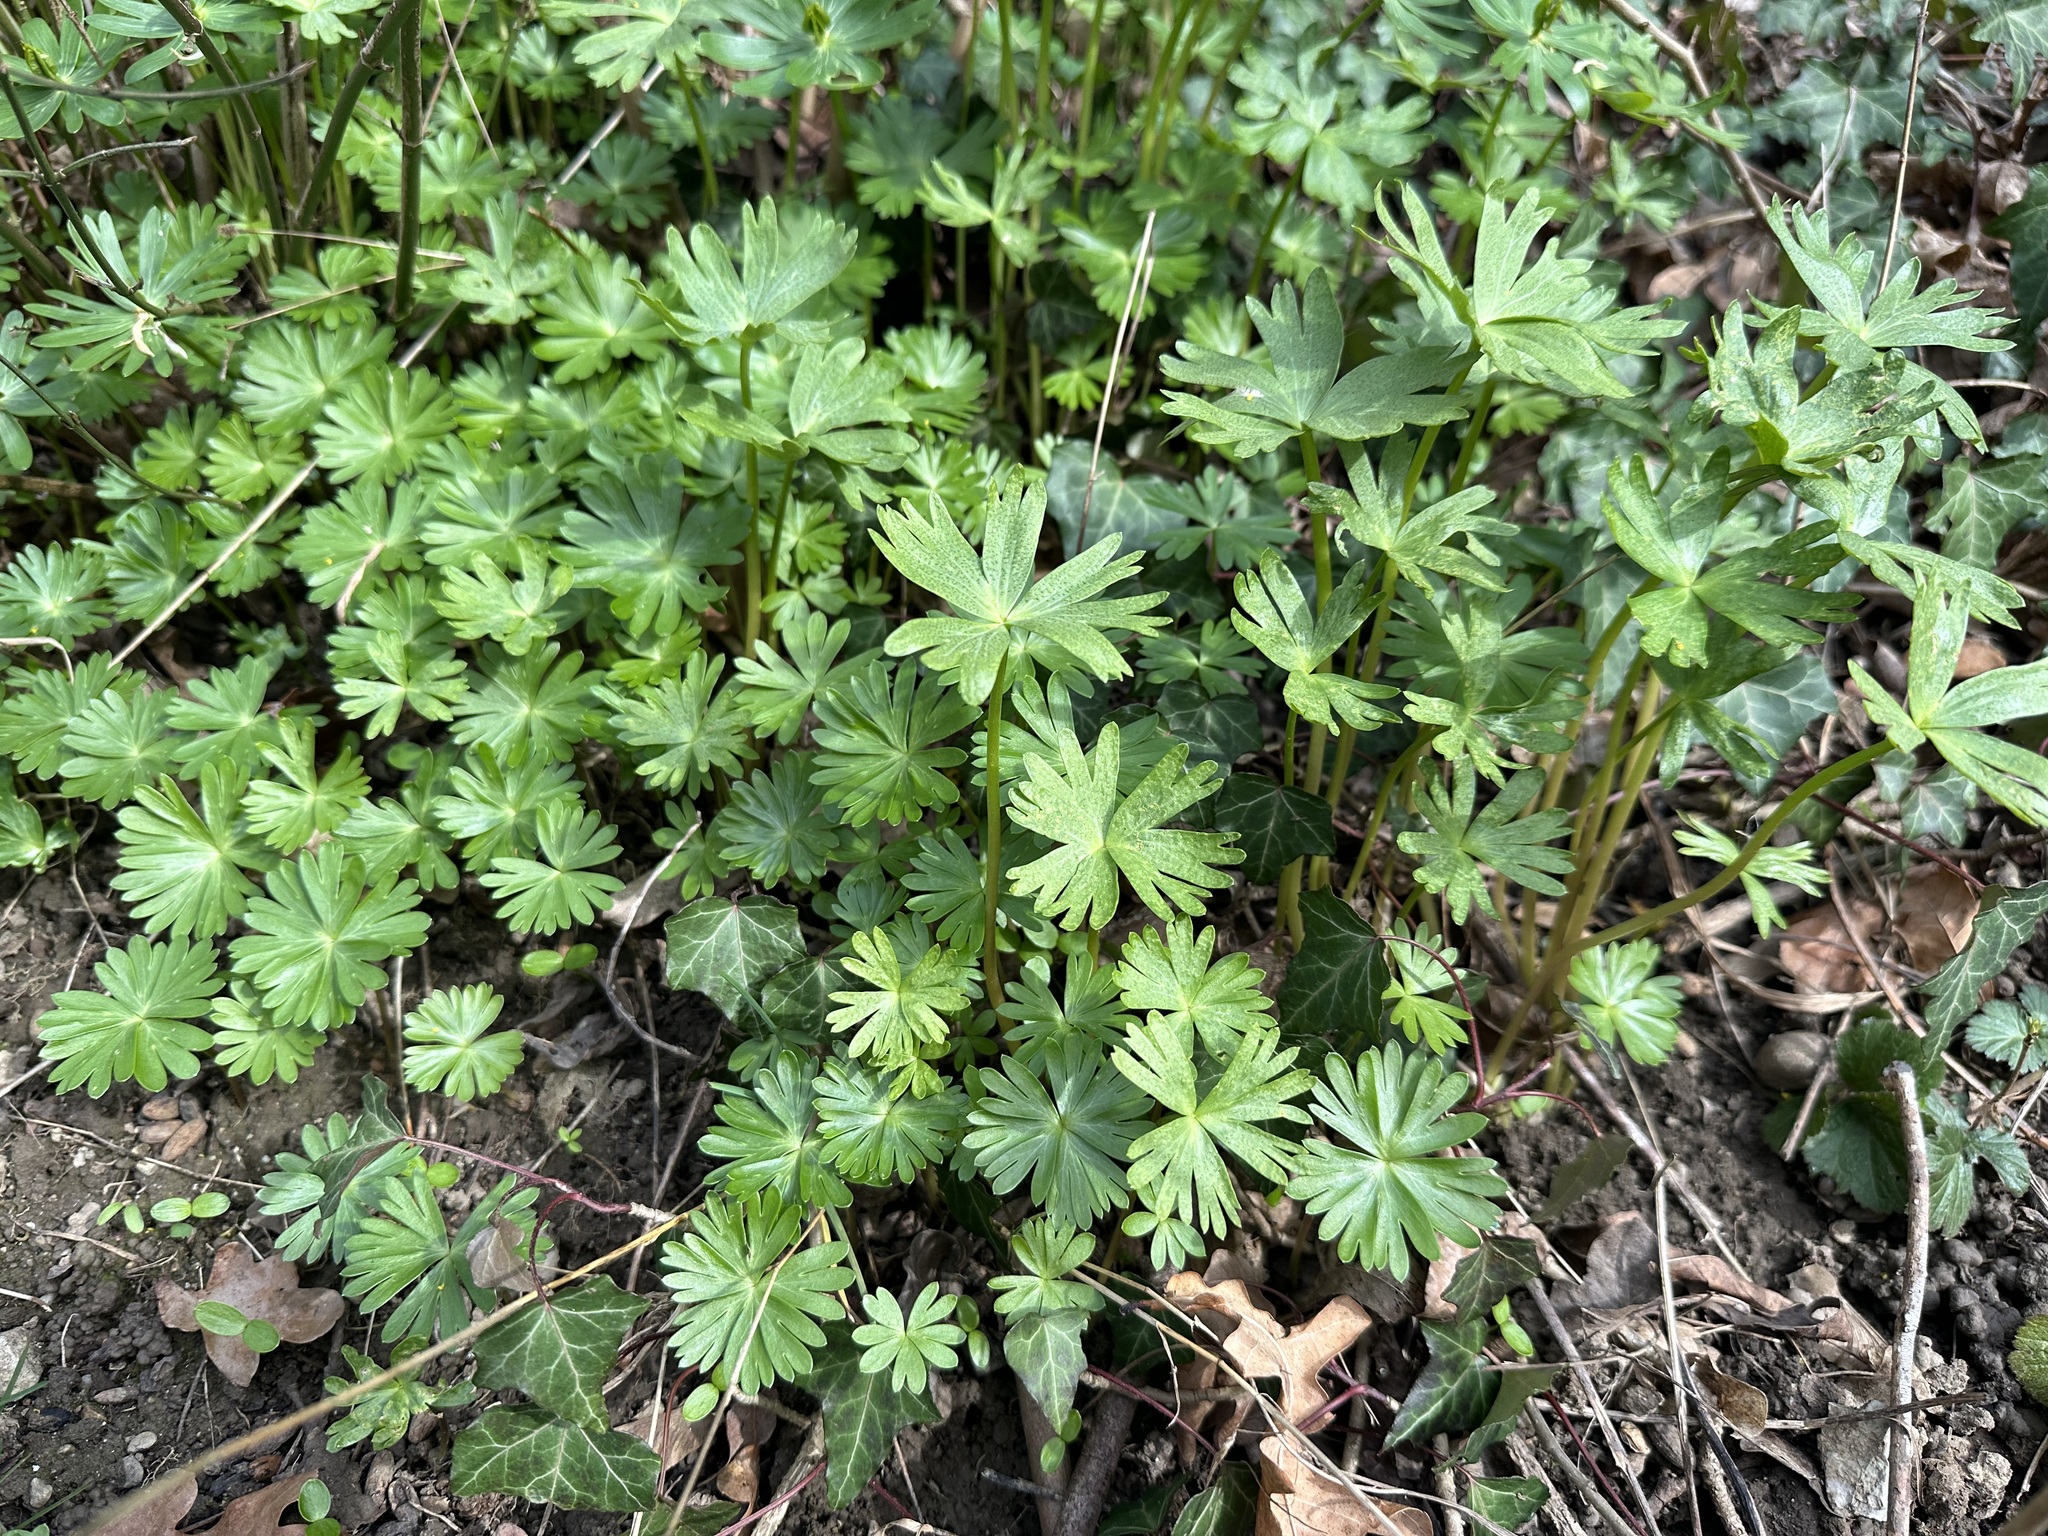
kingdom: Fungi
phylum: Basidiomycota
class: Pucciniomycetes
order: Pucciniales
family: Uropyxidaceae
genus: Leucotelium
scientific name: Leucotelium cerasi
